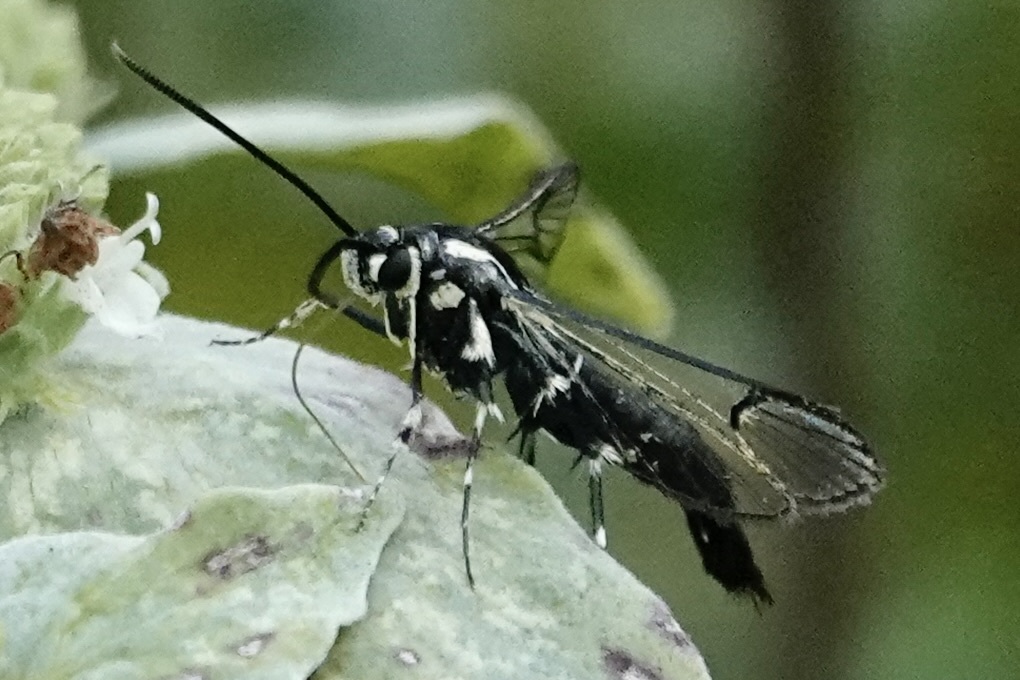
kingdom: Animalia
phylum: Arthropoda
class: Insecta
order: Lepidoptera
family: Sesiidae
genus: Synanthedon
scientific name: Synanthedon pictipes
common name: Lesser peachtree borer moth
